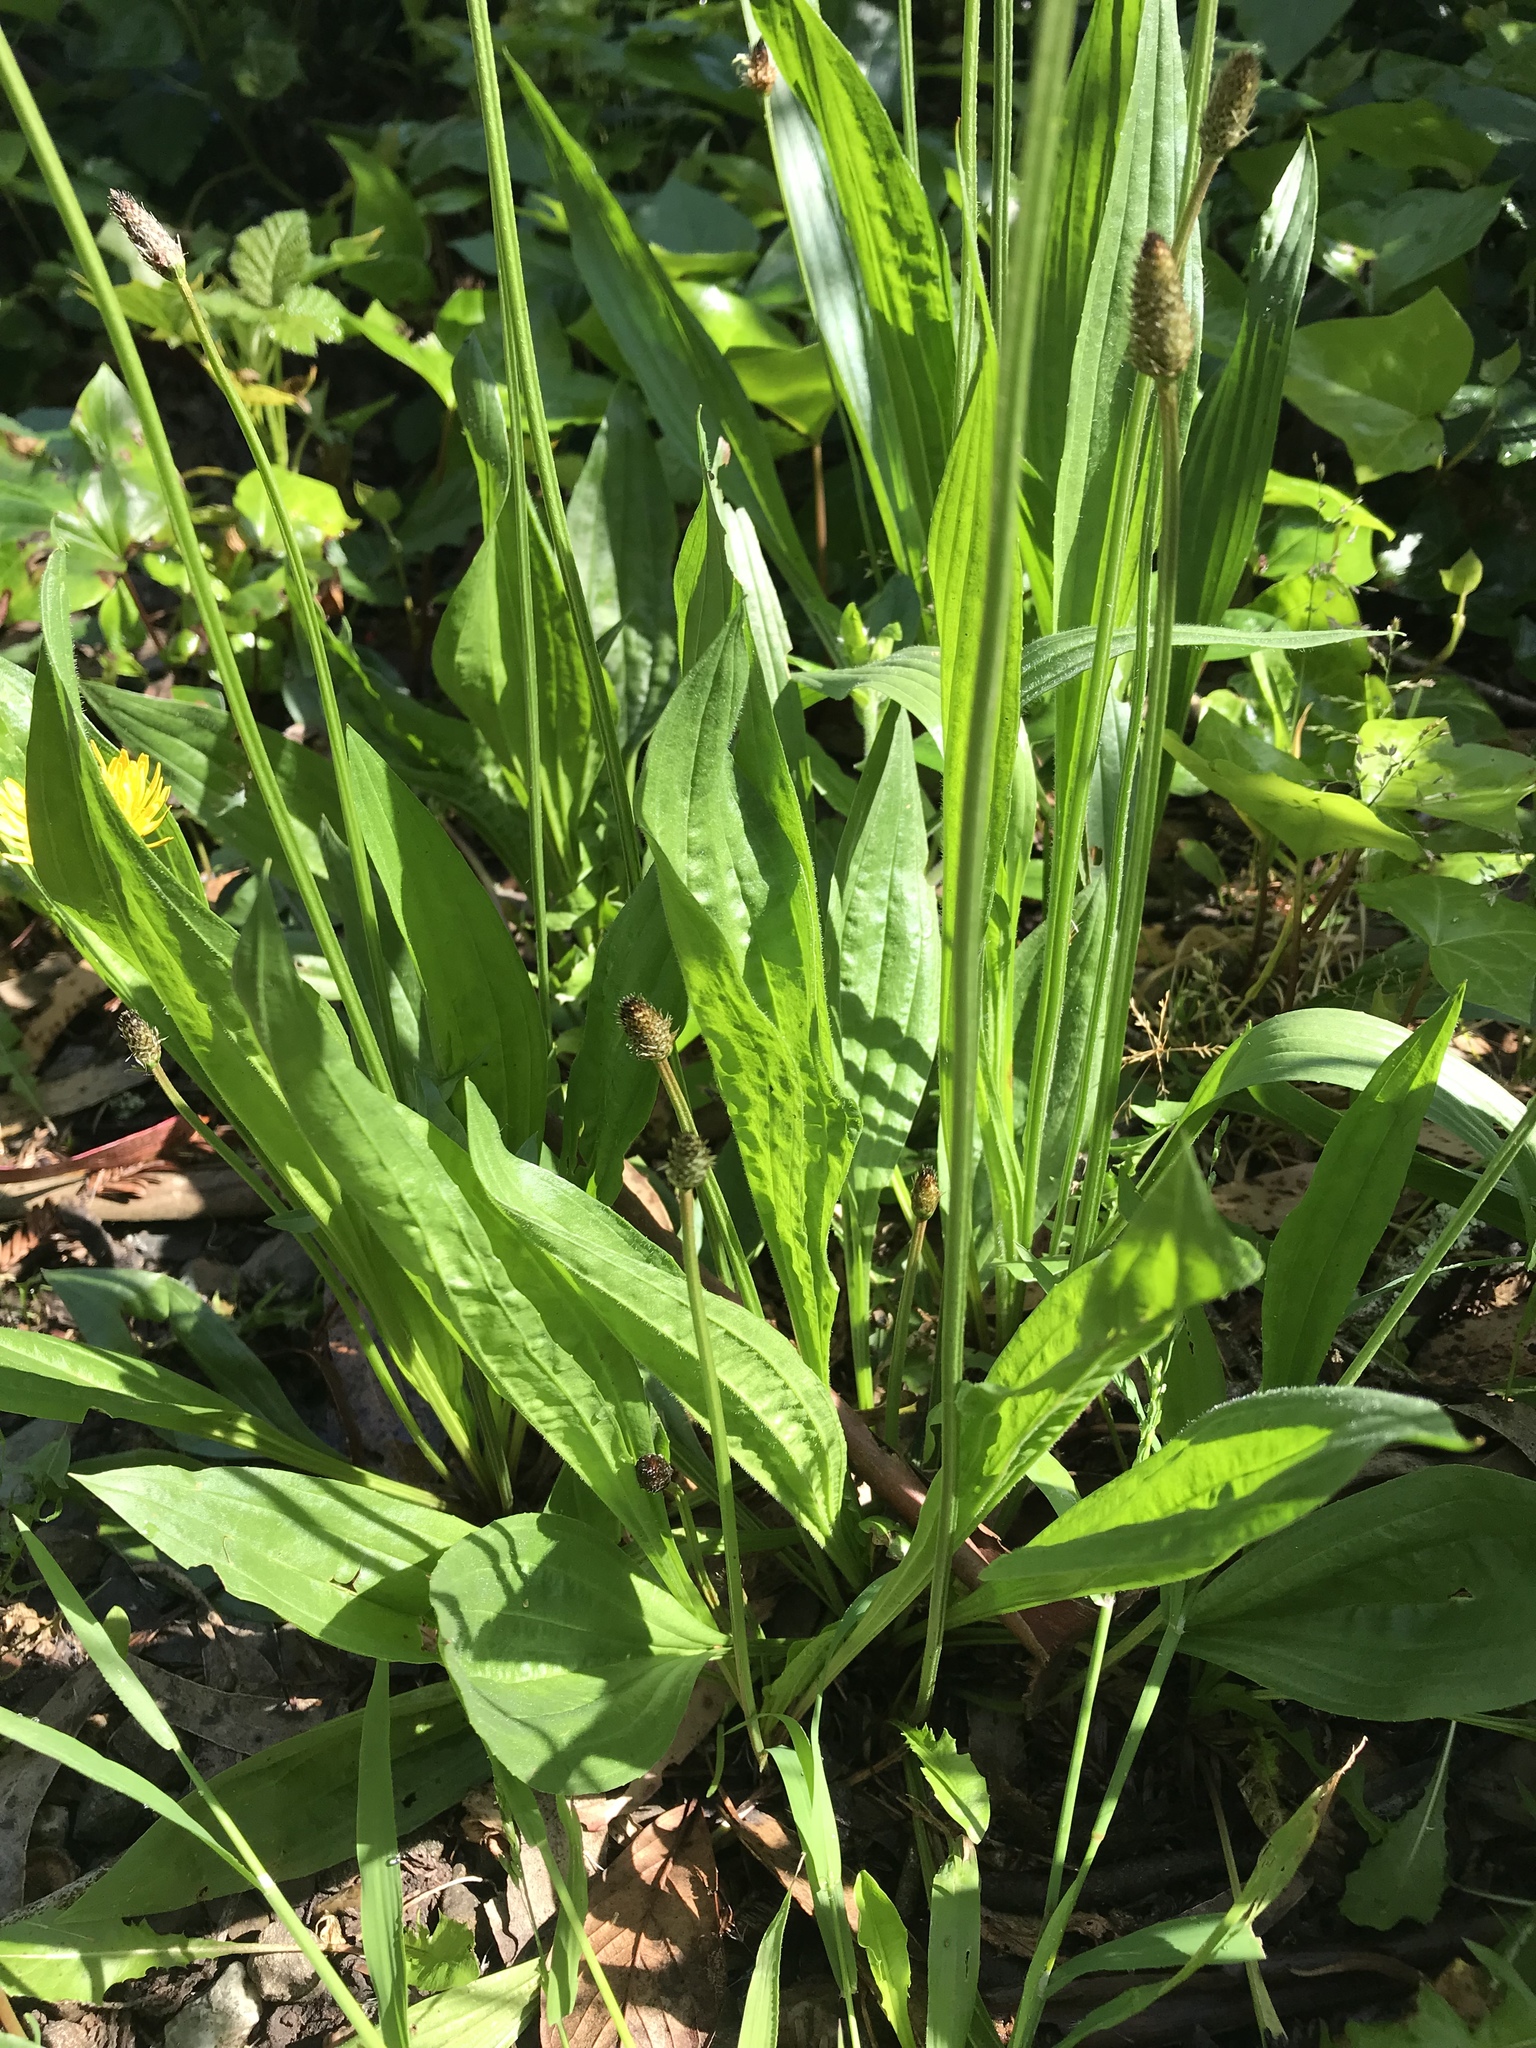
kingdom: Plantae
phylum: Tracheophyta
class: Magnoliopsida
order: Lamiales
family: Plantaginaceae
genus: Plantago
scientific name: Plantago lanceolata
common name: Ribwort plantain
